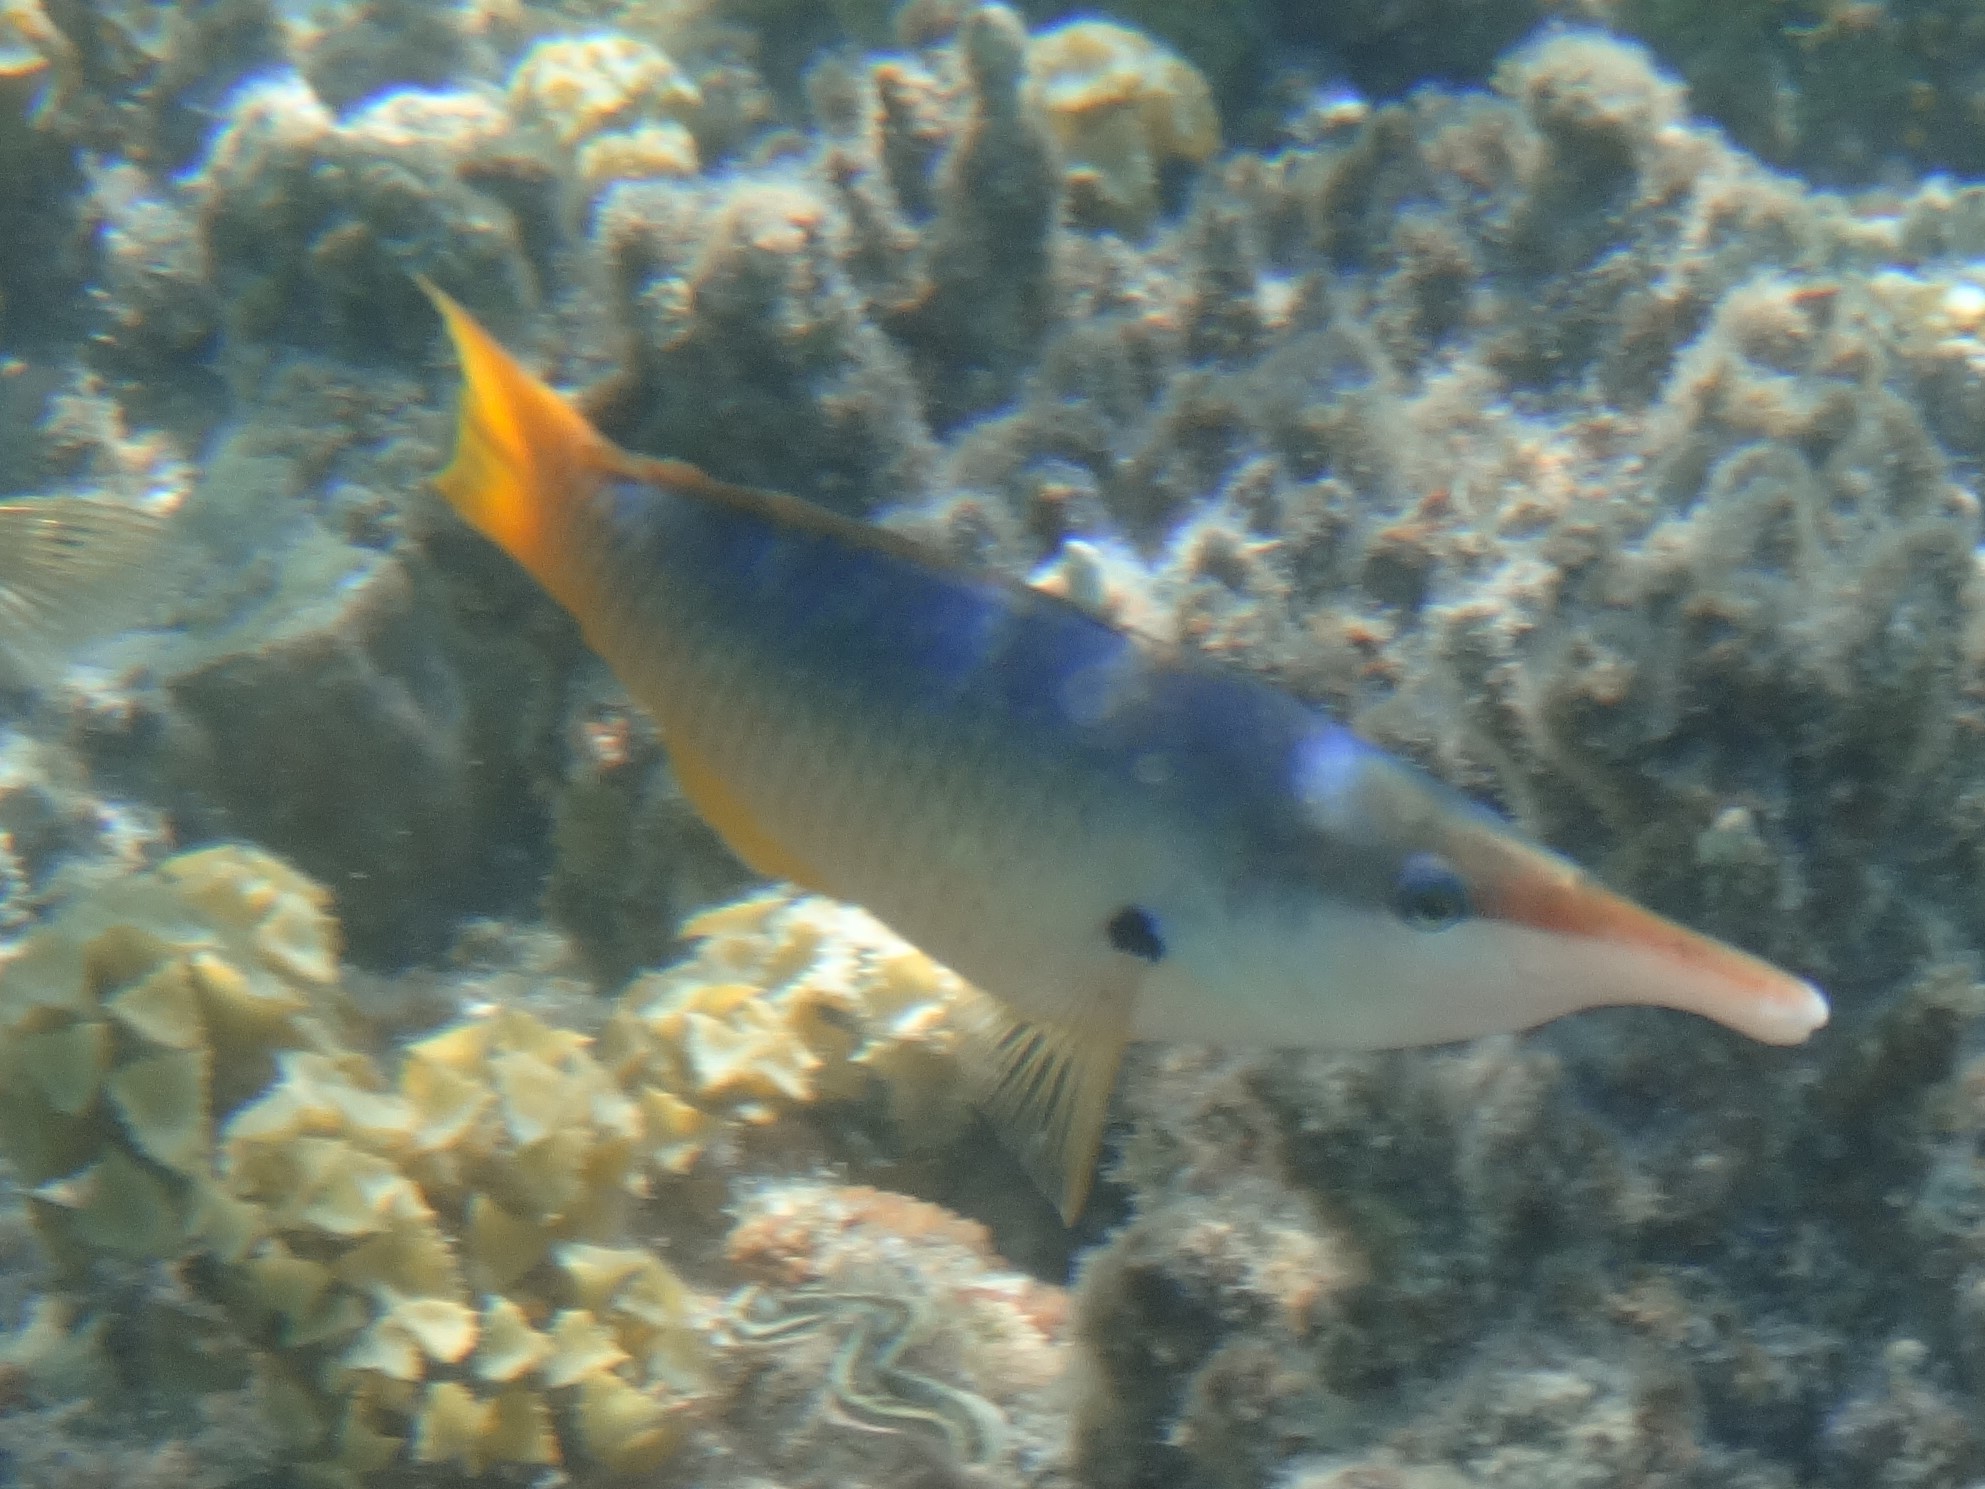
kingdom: Animalia
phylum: Chordata
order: Perciformes
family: Labridae
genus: Gomphosus
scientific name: Gomphosus klunzingeri
